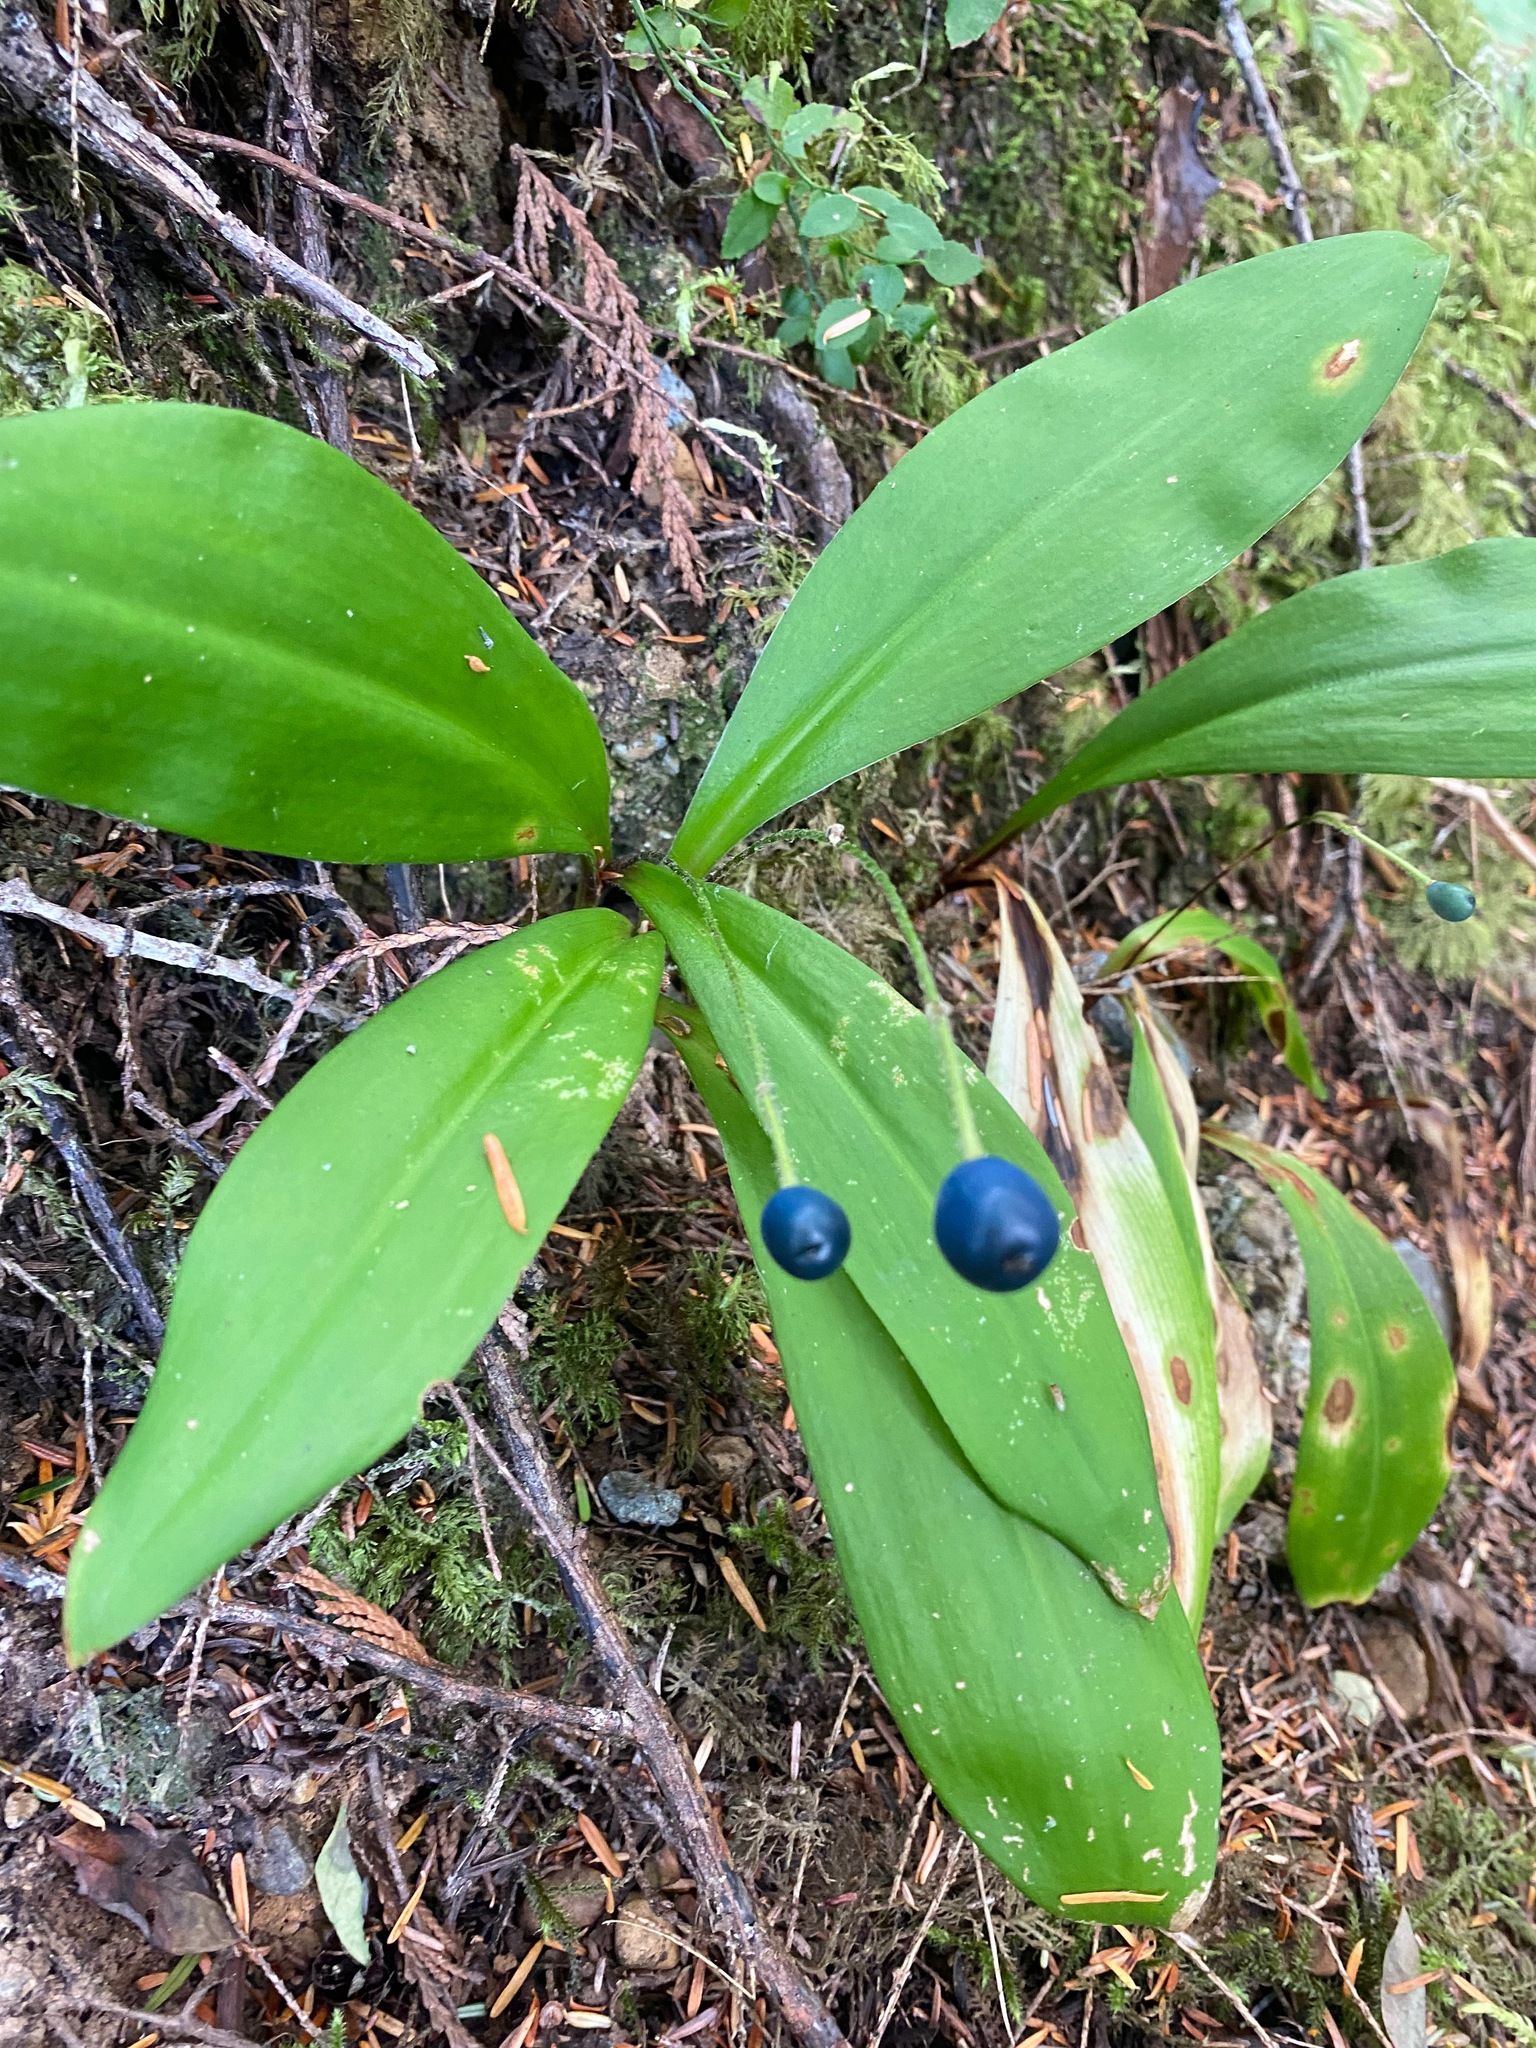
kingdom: Plantae
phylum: Tracheophyta
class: Liliopsida
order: Liliales
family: Liliaceae
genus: Clintonia
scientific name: Clintonia uniflora
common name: Queen's cup
